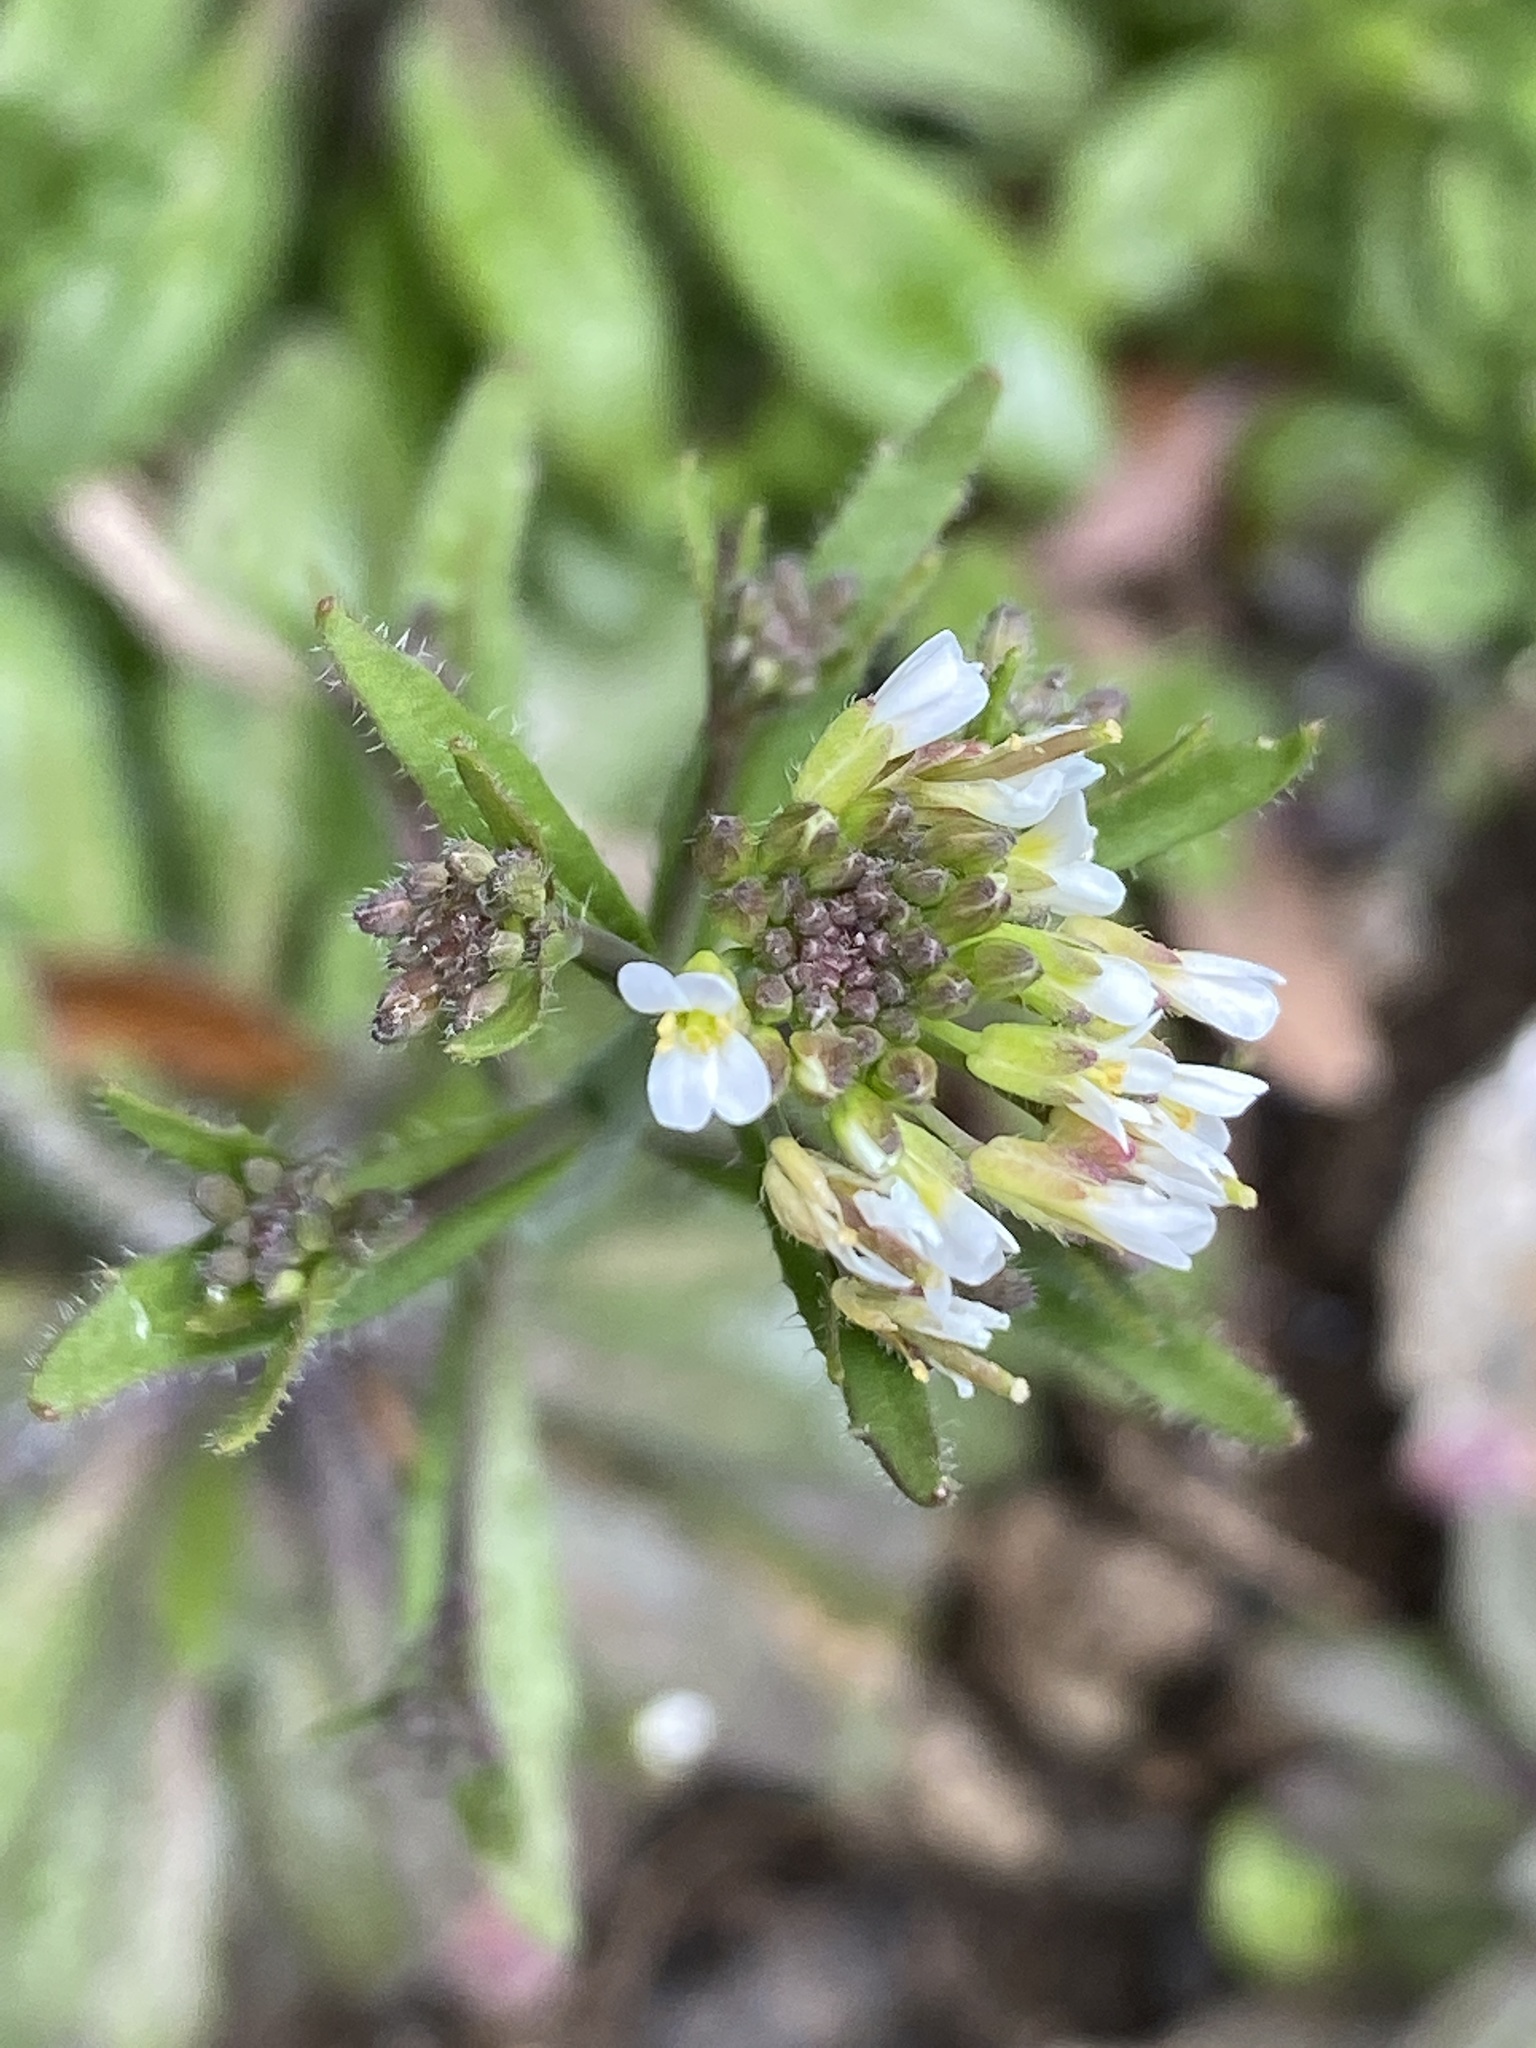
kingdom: Plantae
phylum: Tracheophyta
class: Magnoliopsida
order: Brassicales
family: Brassicaceae
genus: Arabidopsis
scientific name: Arabidopsis thaliana
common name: Thale cress
